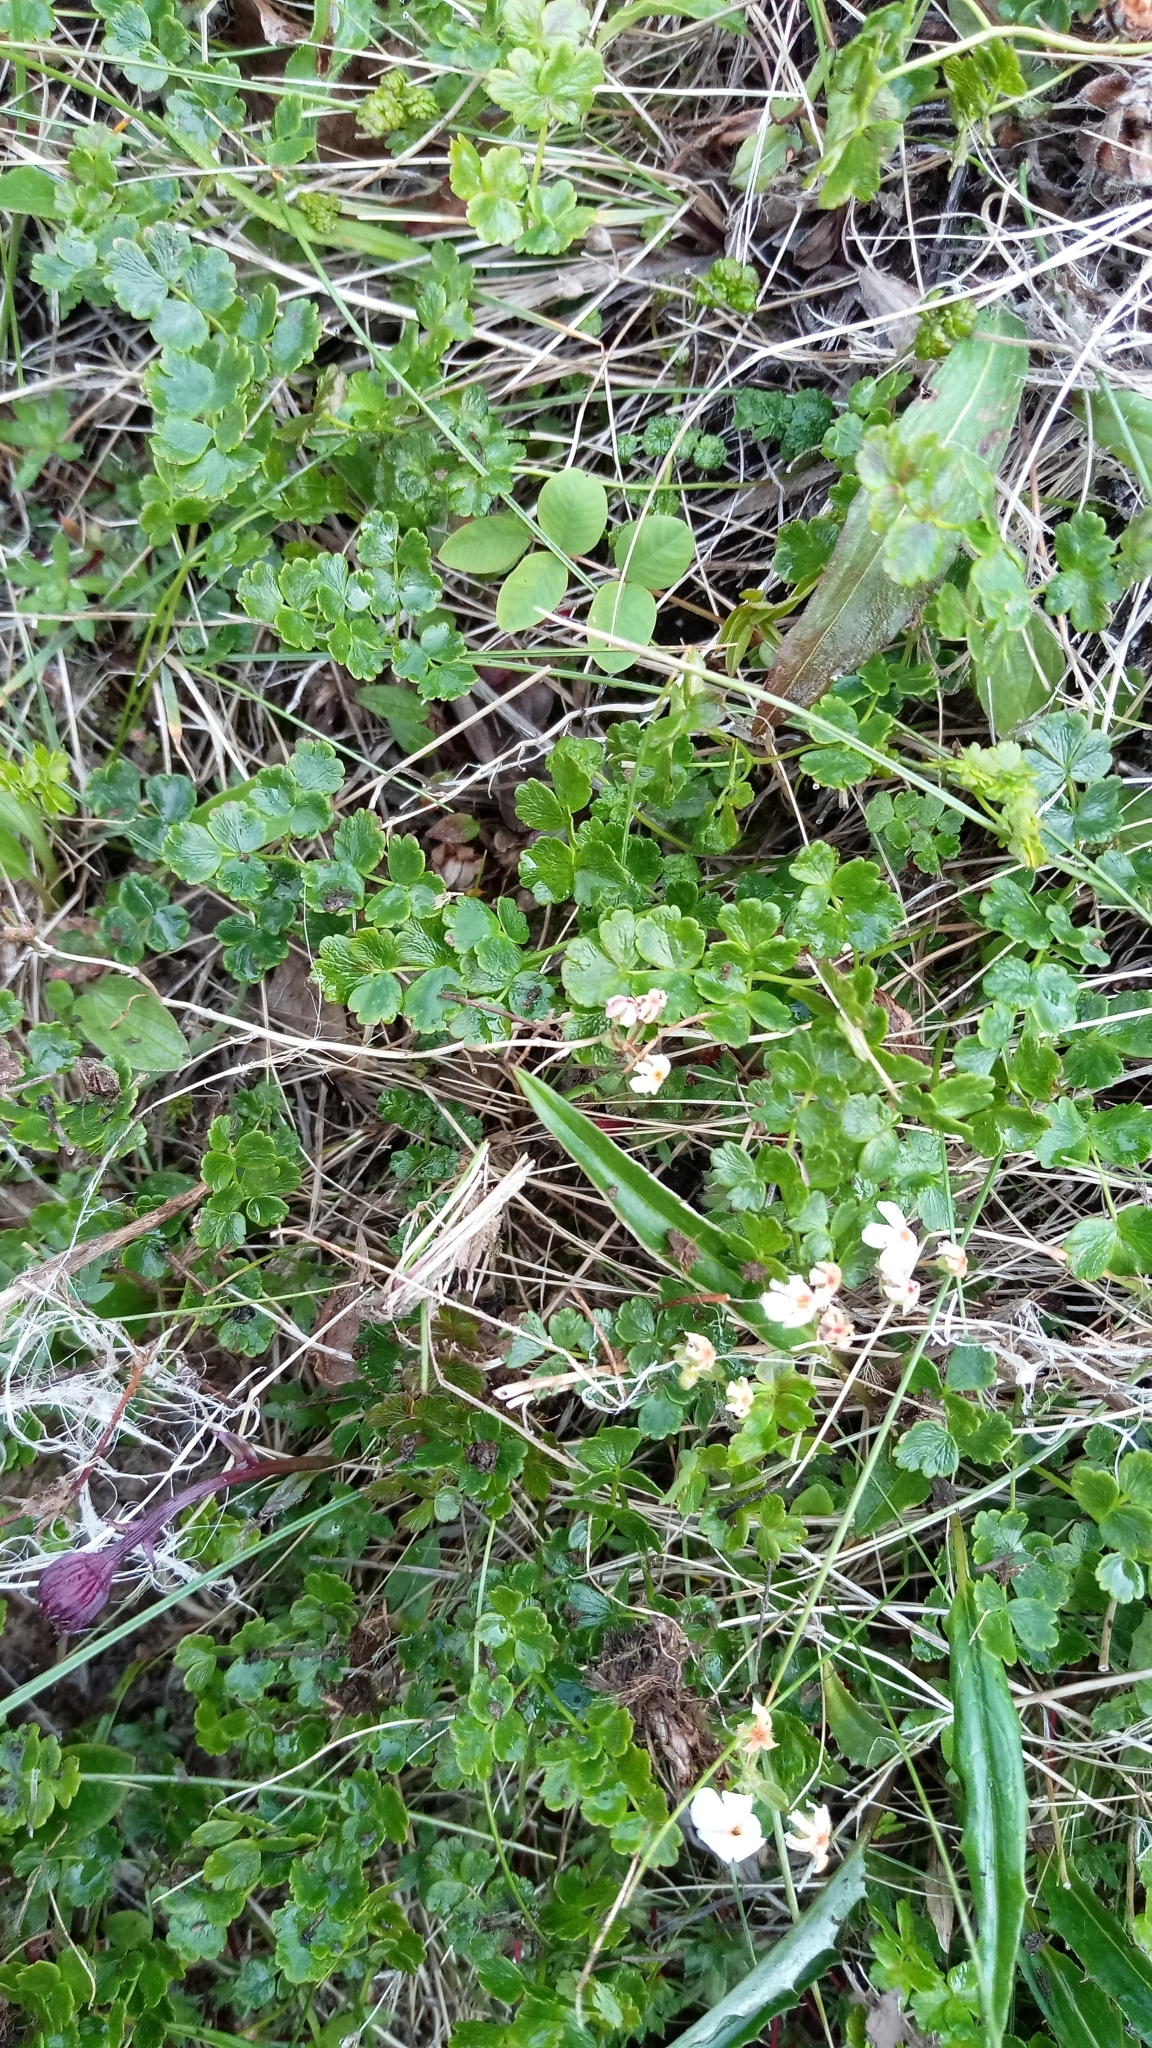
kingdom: Plantae
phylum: Tracheophyta
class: Magnoliopsida
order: Ranunculales
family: Ranunculaceae
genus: Thalictrum
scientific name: Thalictrum alpinum
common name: Alpine meadow-rue
